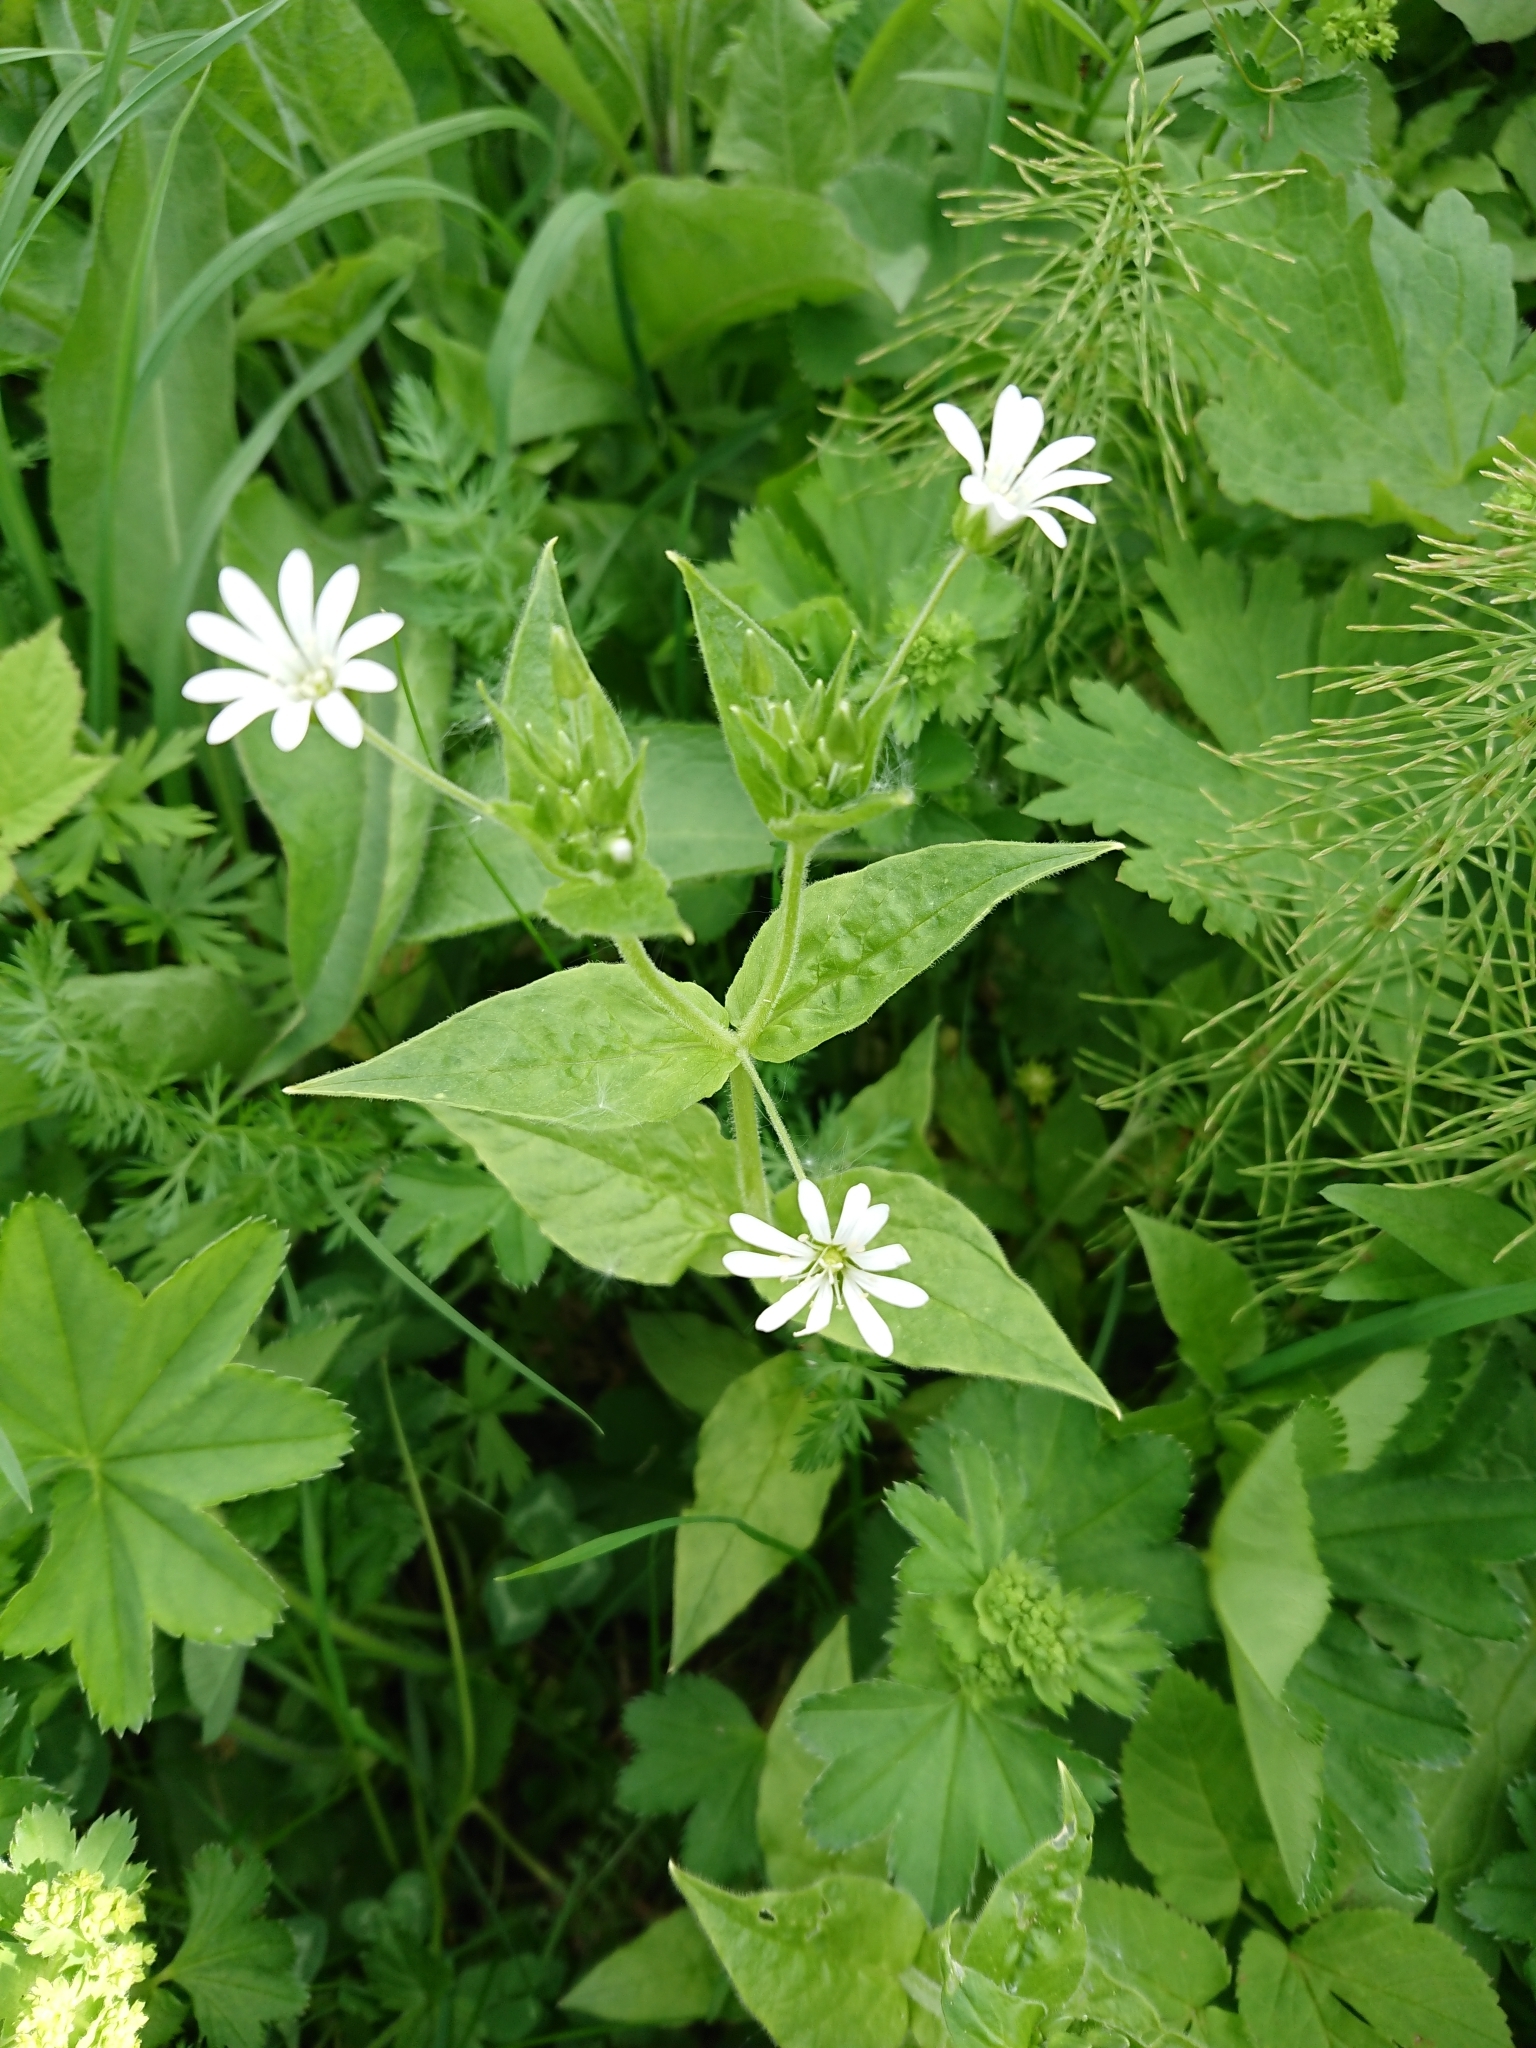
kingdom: Plantae
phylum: Tracheophyta
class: Magnoliopsida
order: Caryophyllales
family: Caryophyllaceae
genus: Stellaria
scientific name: Stellaria nemorum
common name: Wood stitchwort
